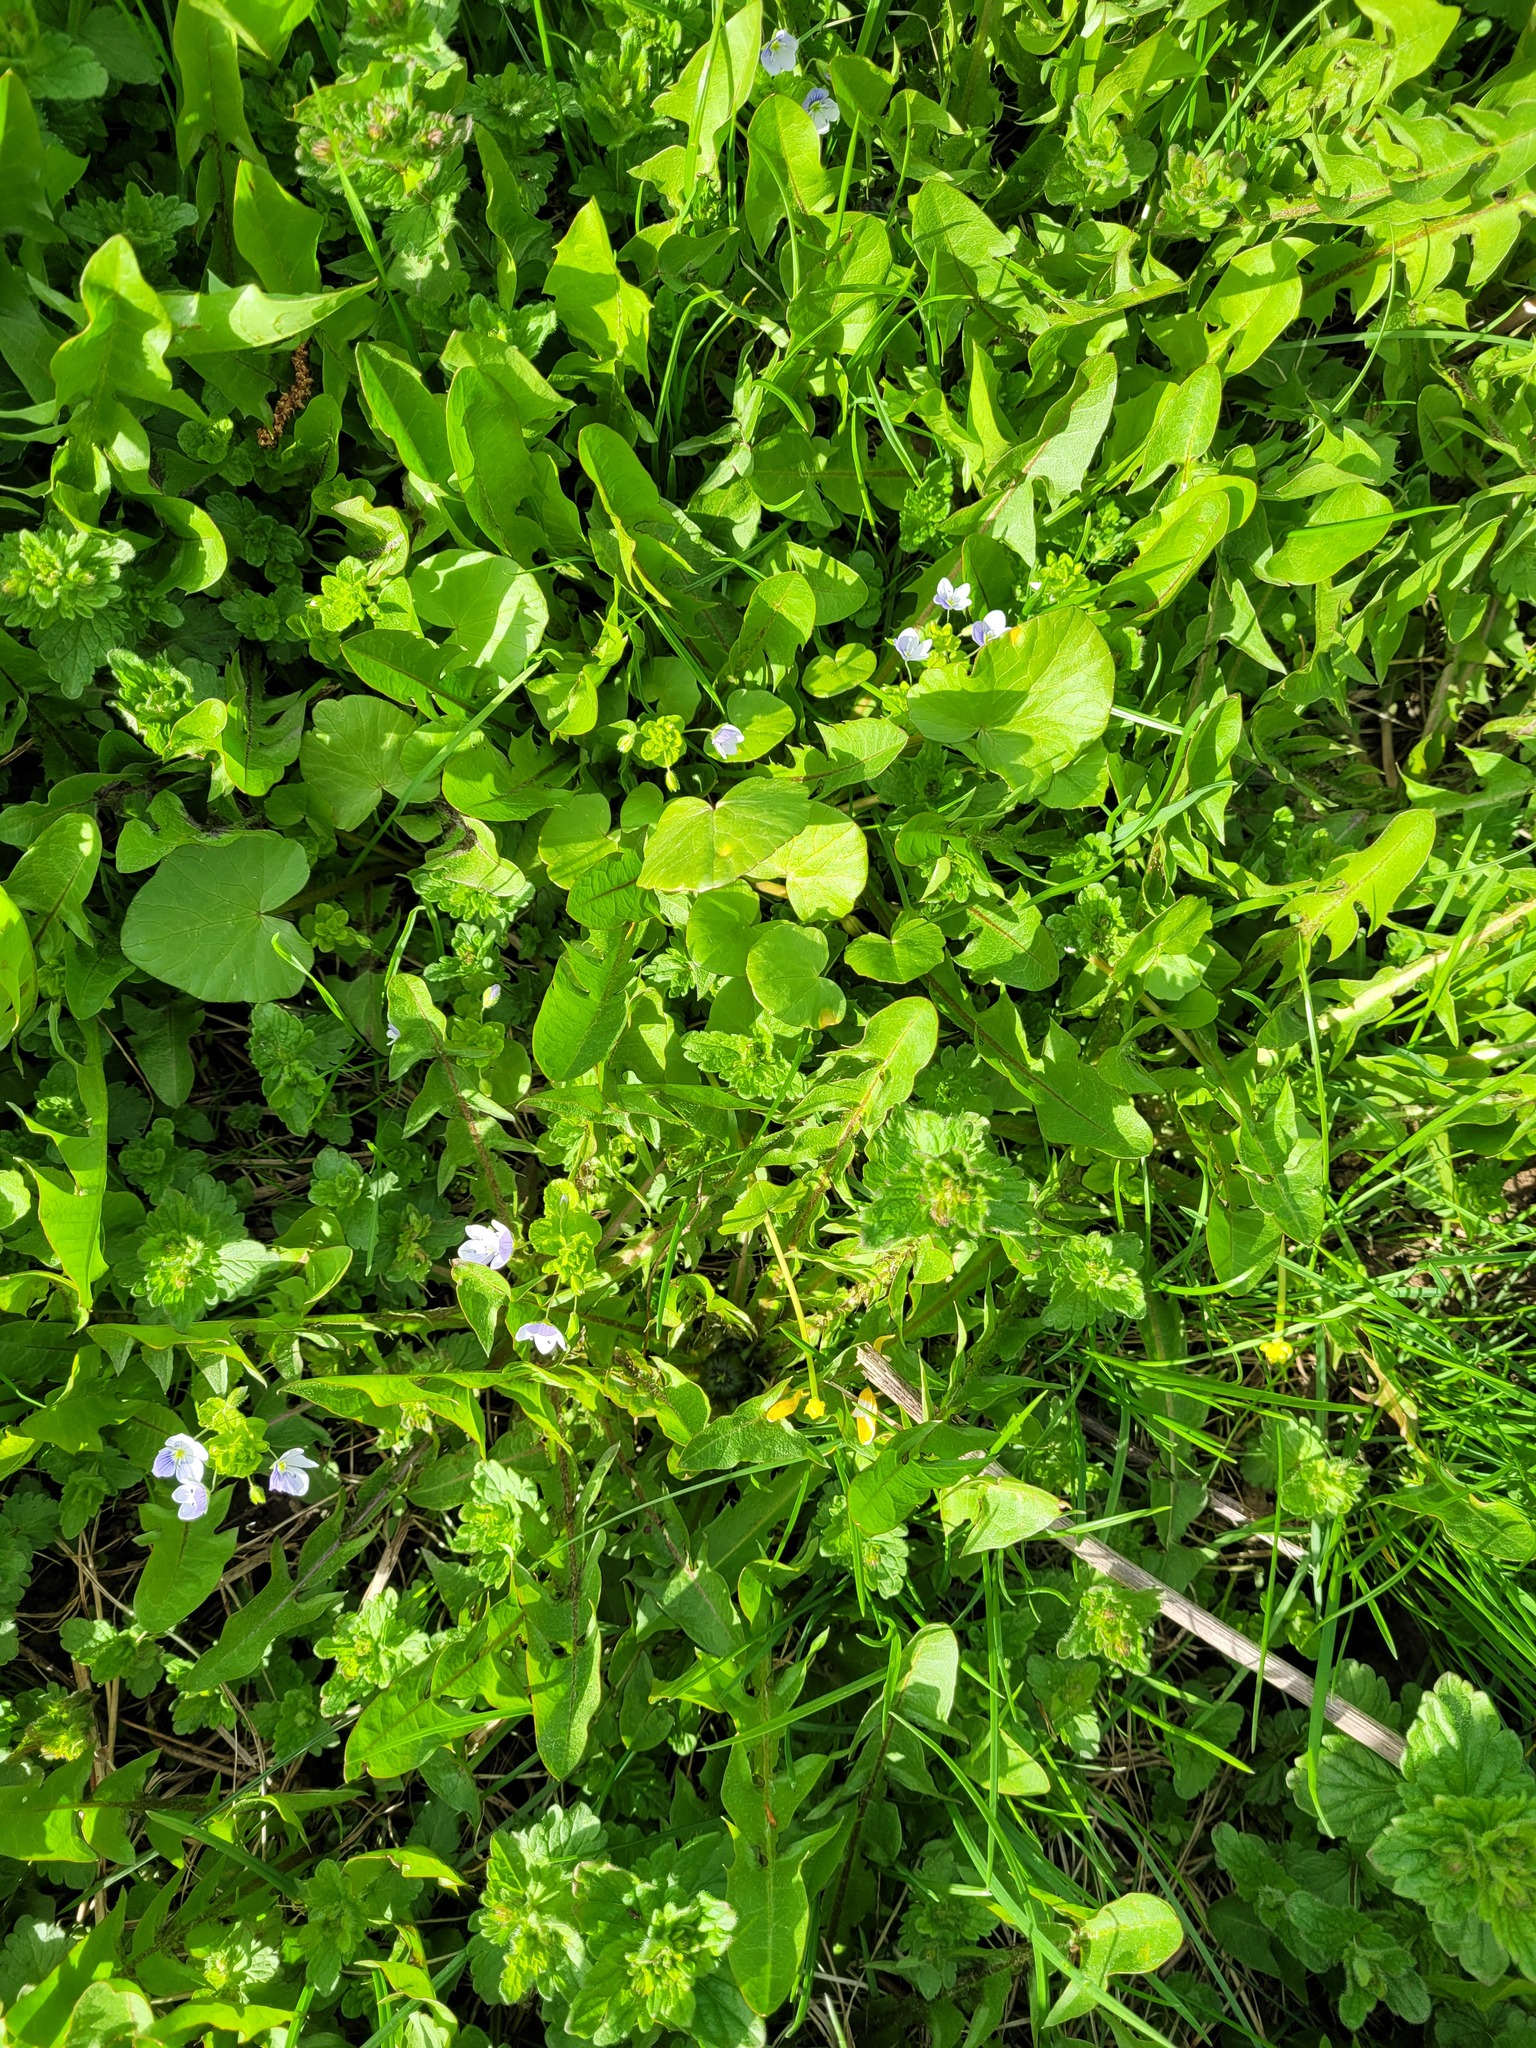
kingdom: Plantae
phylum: Tracheophyta
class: Magnoliopsida
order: Lamiales
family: Plantaginaceae
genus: Veronica
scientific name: Veronica filiformis
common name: Slender speedwell
